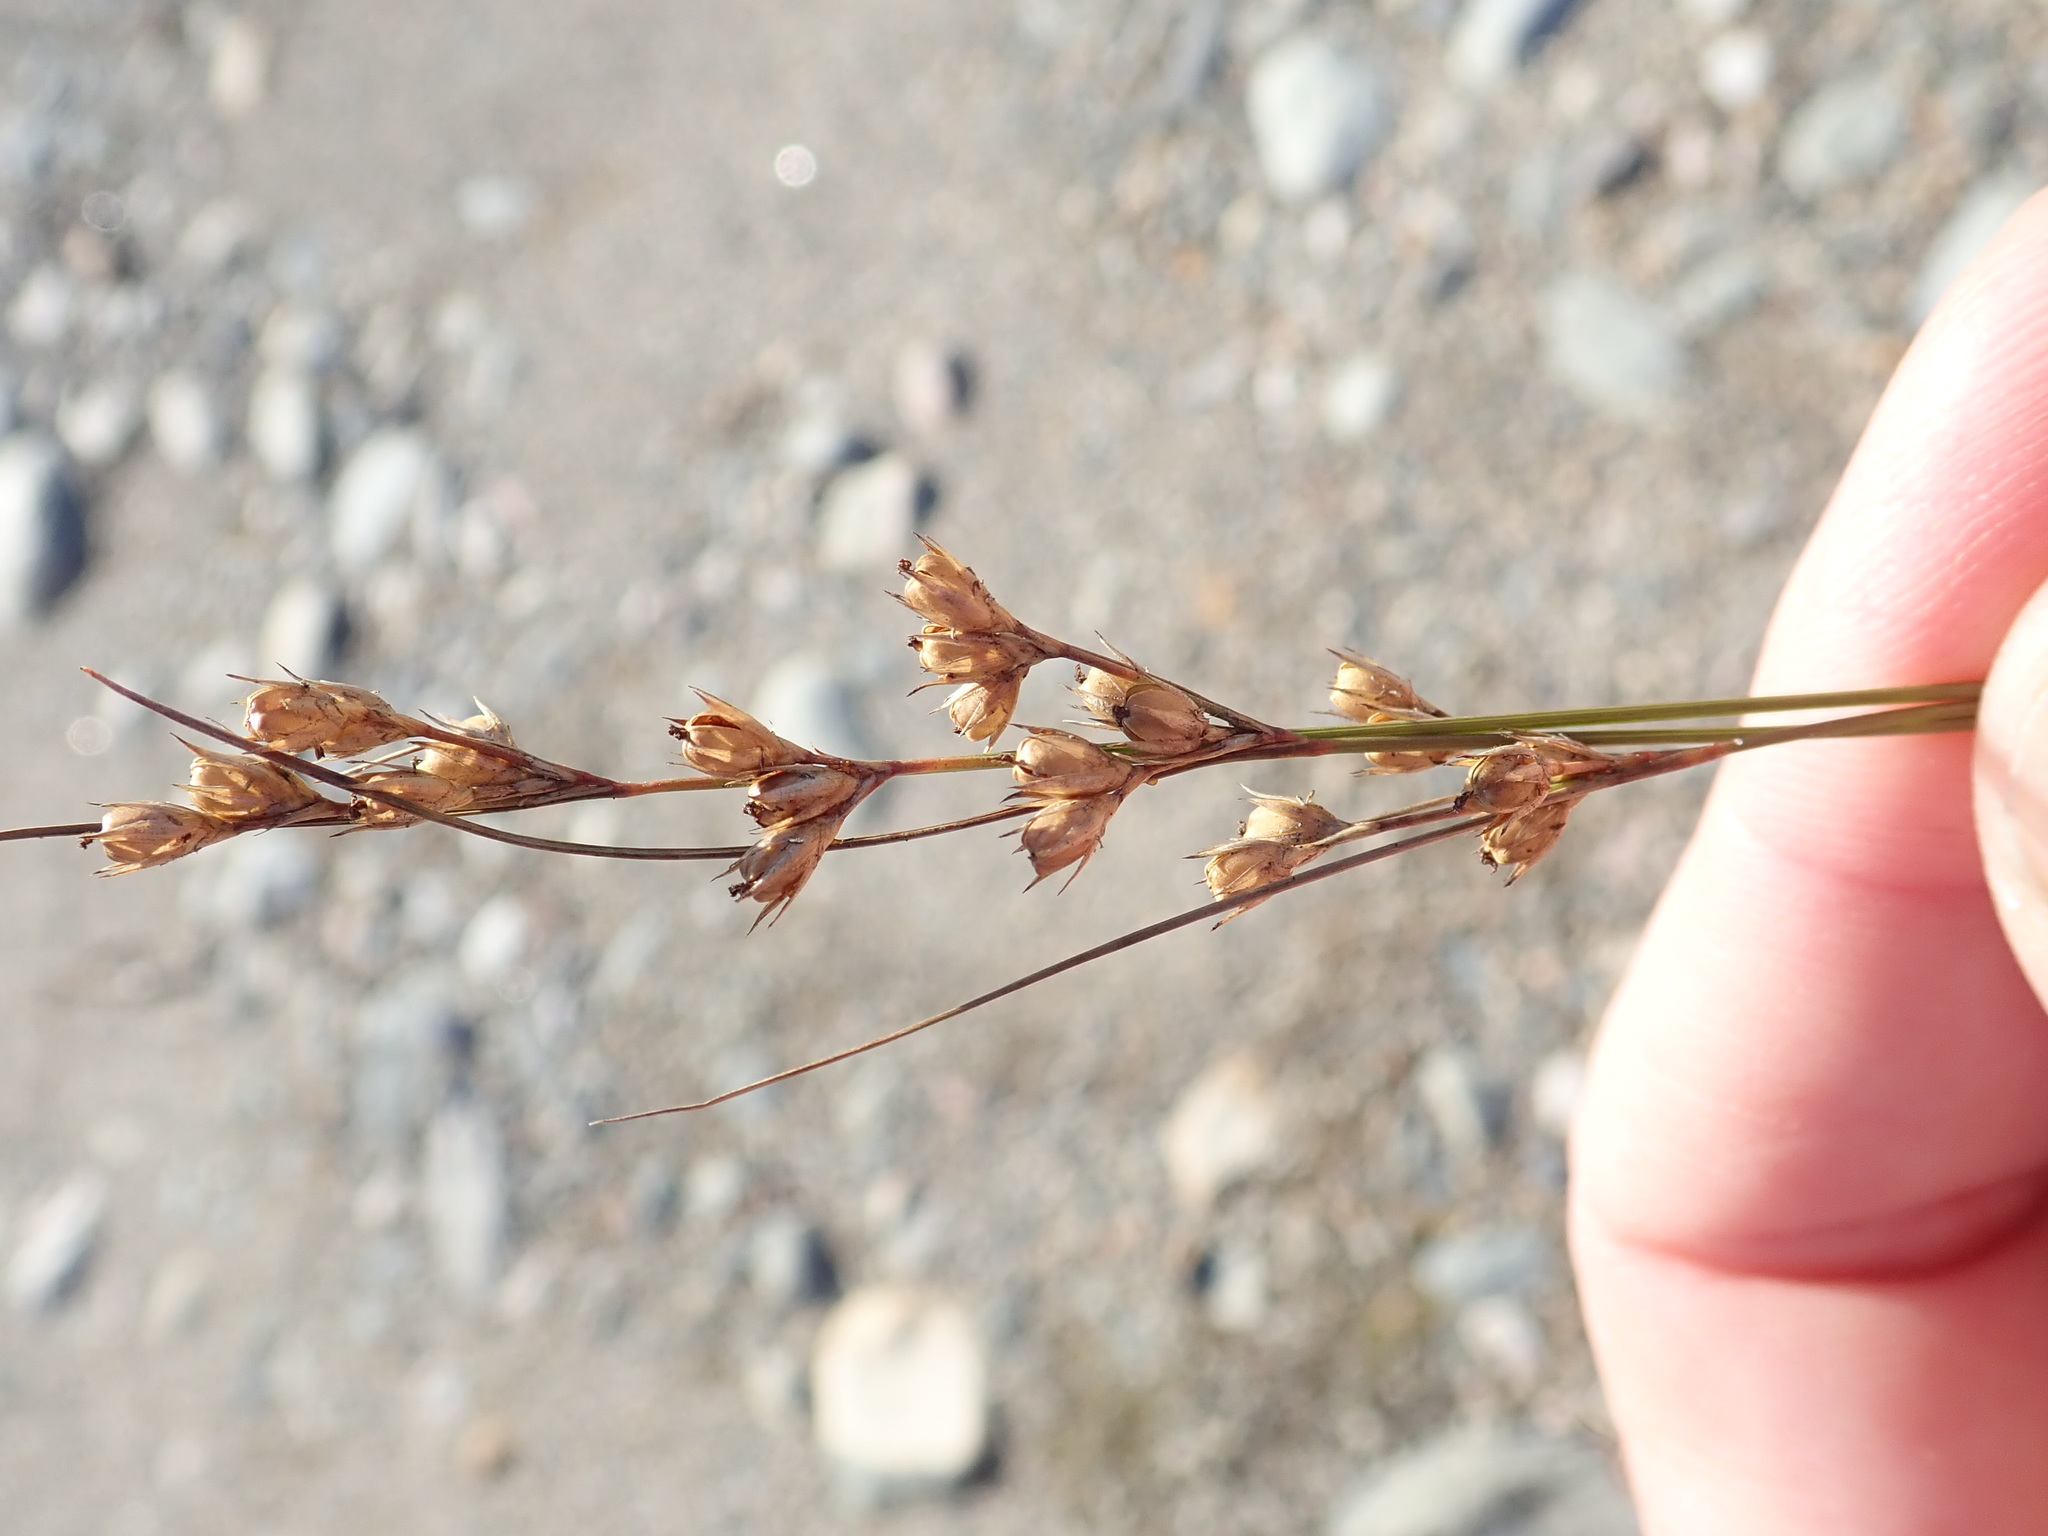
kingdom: Plantae
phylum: Tracheophyta
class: Liliopsida
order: Poales
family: Juncaceae
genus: Juncus
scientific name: Juncus dudleyi
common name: Dudley's rush
